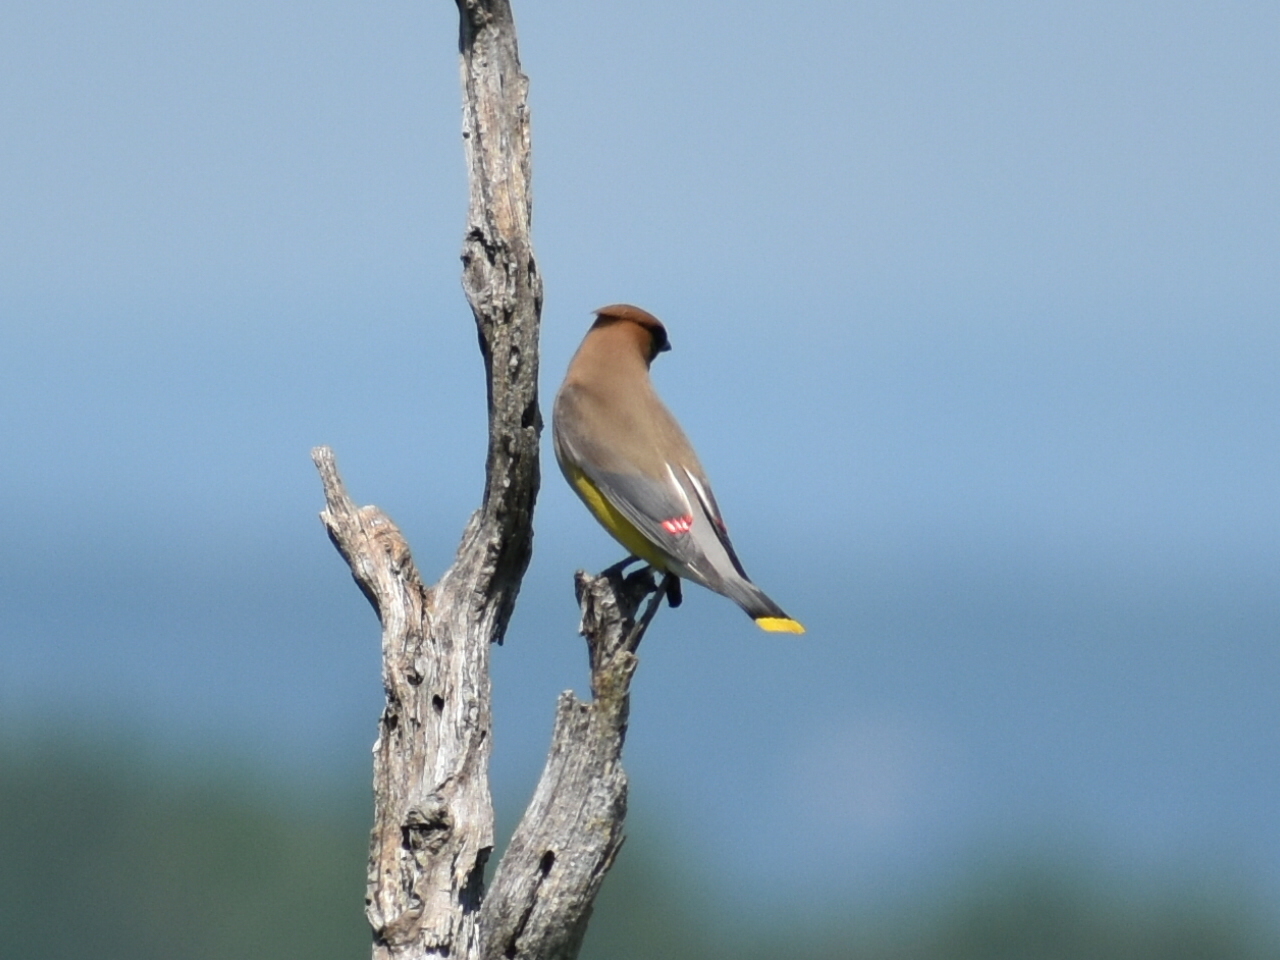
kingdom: Animalia
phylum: Chordata
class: Aves
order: Passeriformes
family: Bombycillidae
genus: Bombycilla
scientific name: Bombycilla cedrorum
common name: Cedar waxwing
